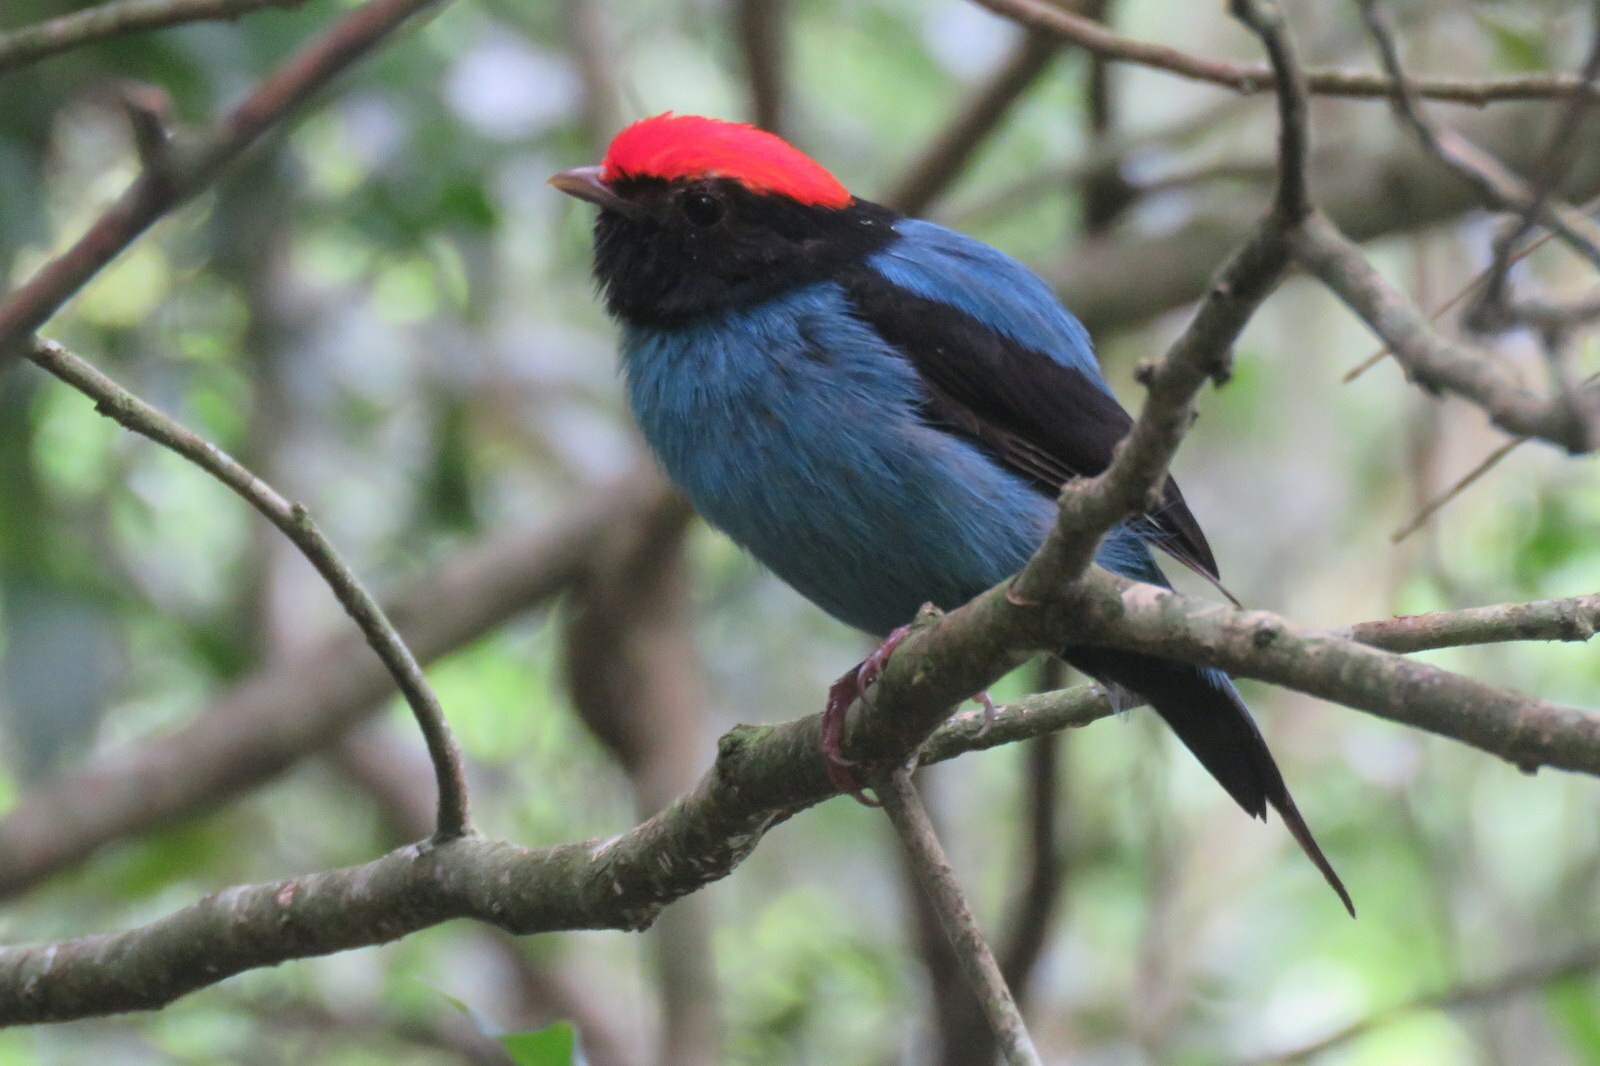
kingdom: Animalia
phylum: Chordata
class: Aves
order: Passeriformes
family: Pipridae
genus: Chiroxiphia
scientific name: Chiroxiphia caudata
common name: Blue manakin
